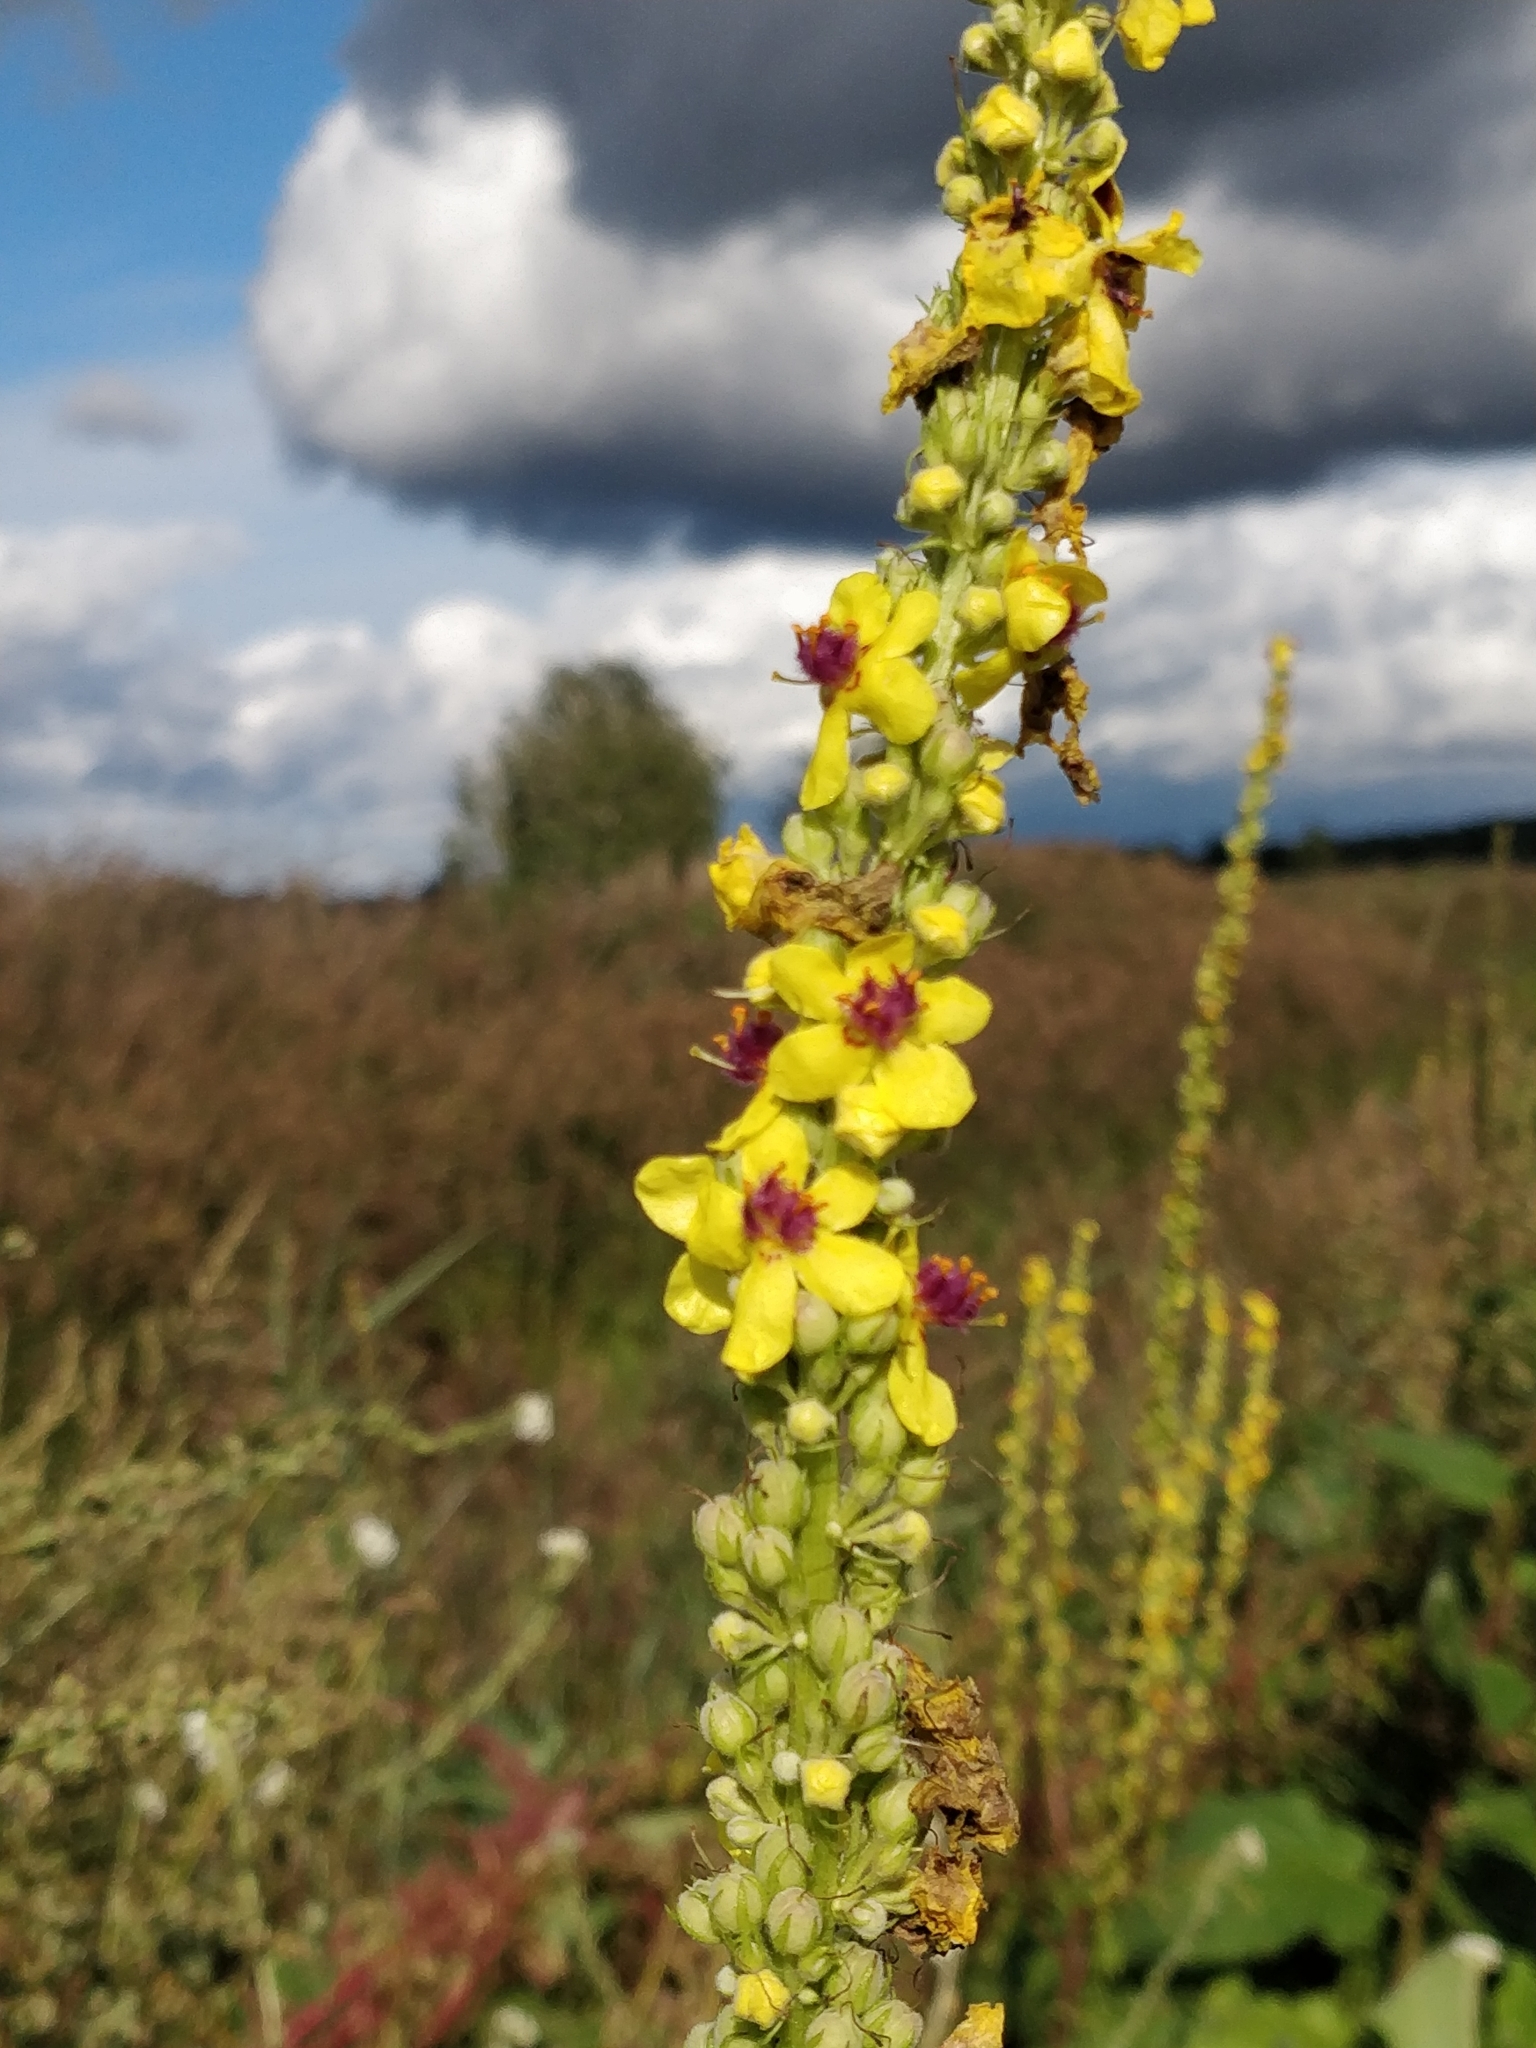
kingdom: Plantae
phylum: Tracheophyta
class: Magnoliopsida
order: Lamiales
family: Scrophulariaceae
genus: Verbascum
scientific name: Verbascum nigrum
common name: Dark mullein
